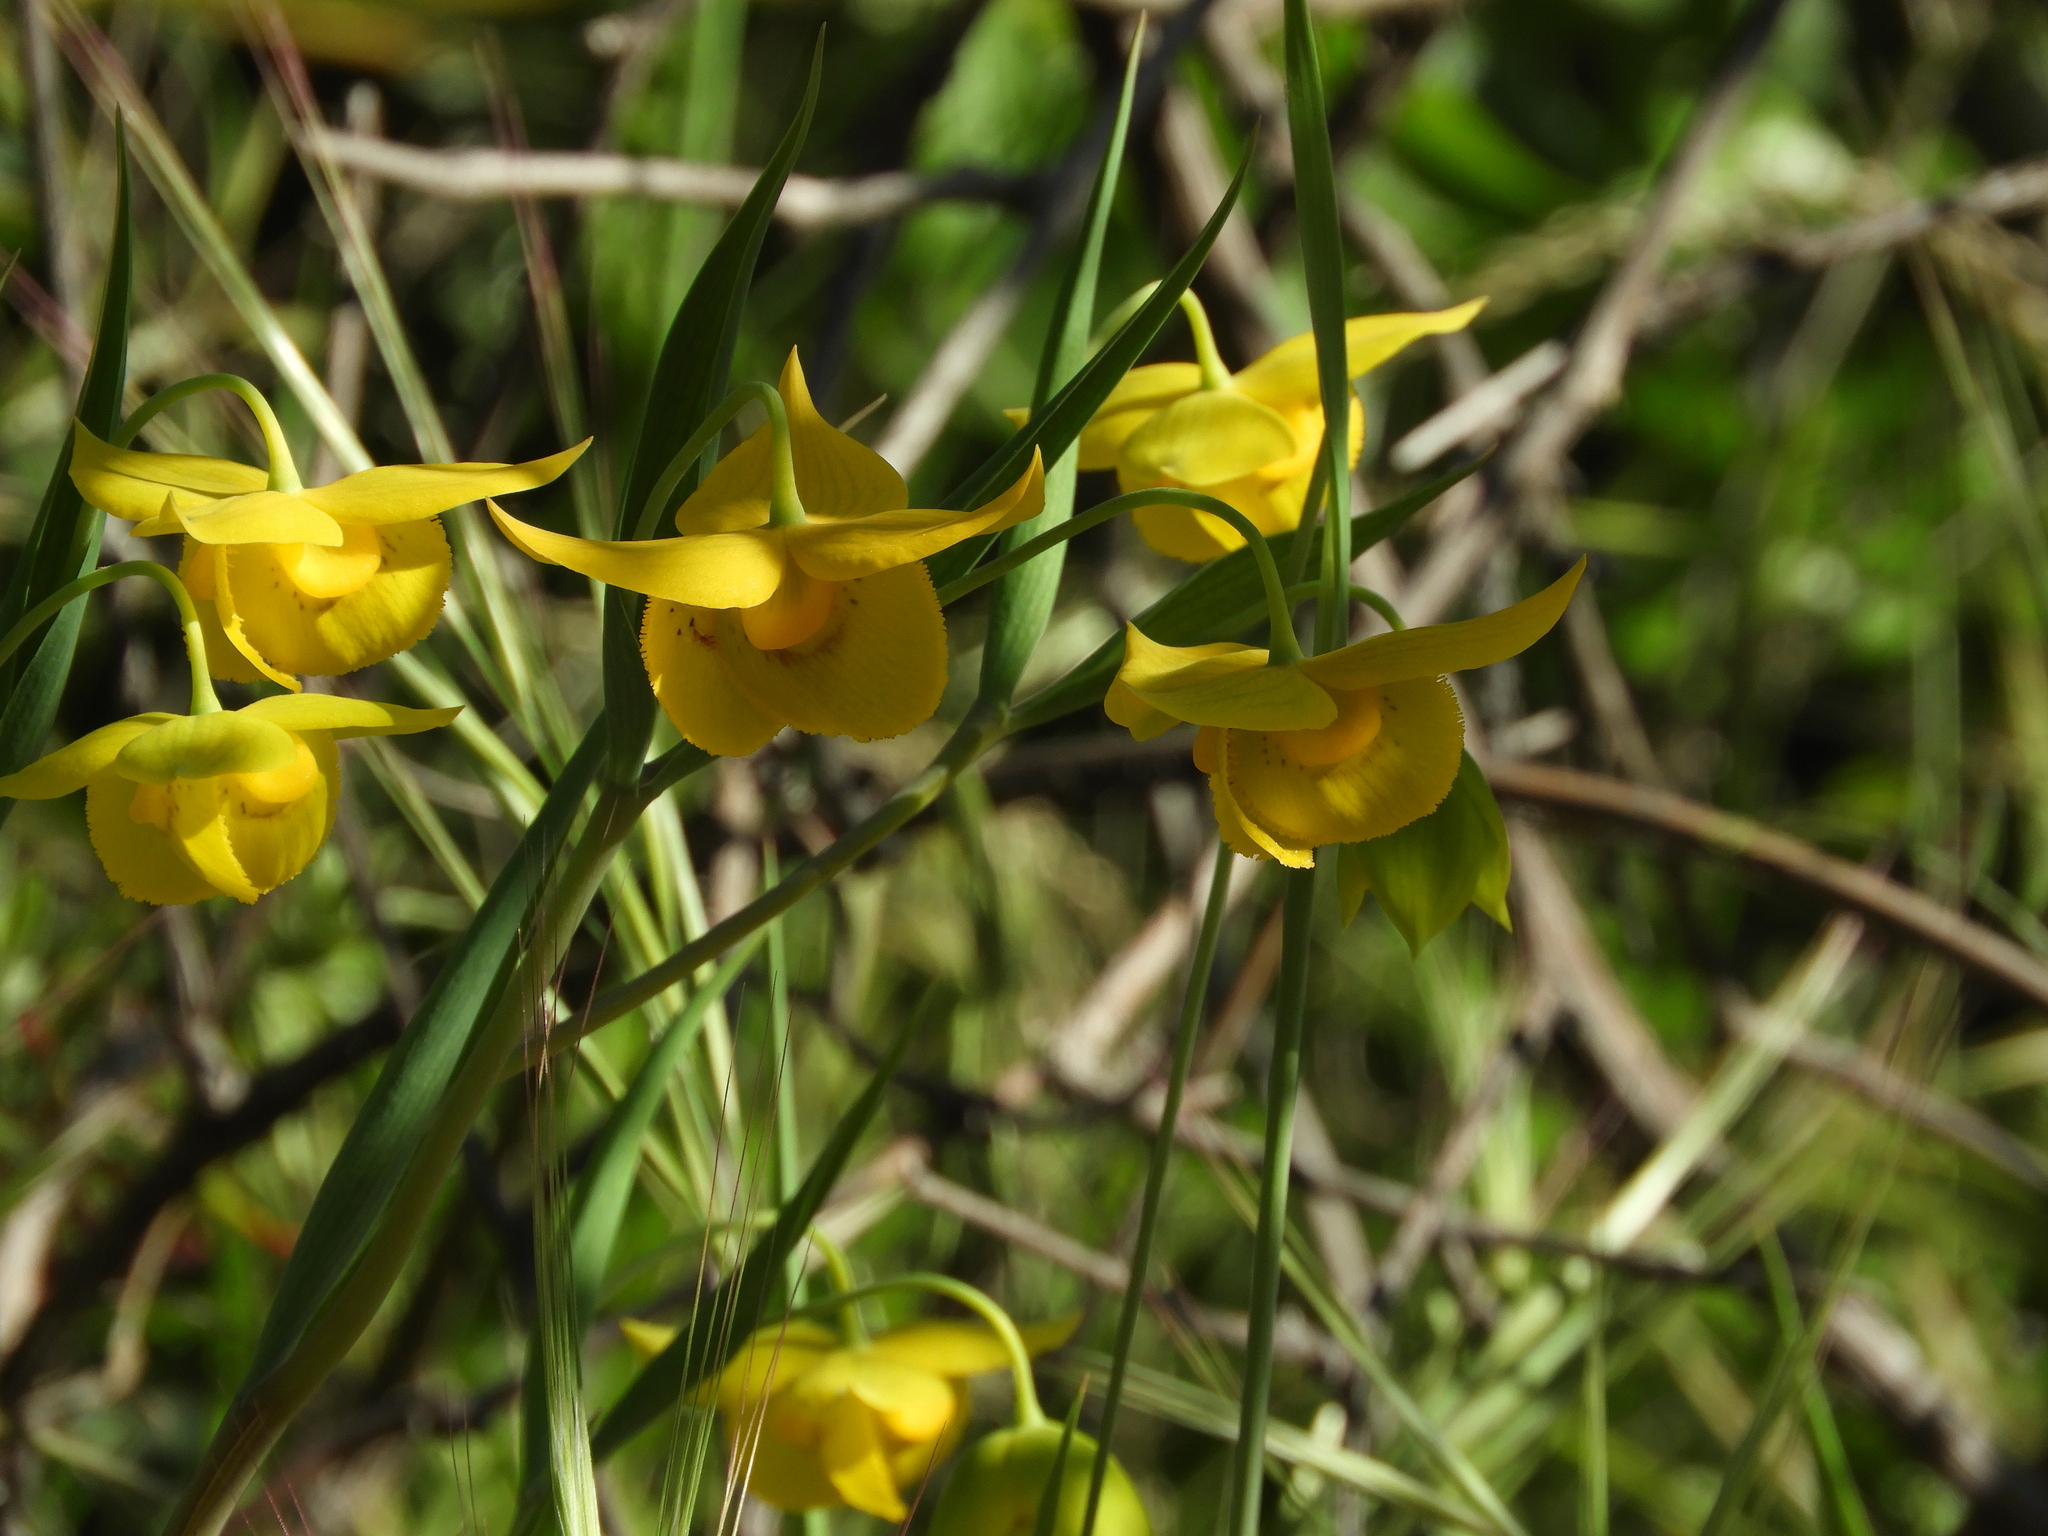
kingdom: Plantae
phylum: Tracheophyta
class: Liliopsida
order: Liliales
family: Liliaceae
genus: Calochortus
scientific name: Calochortus amabilis
